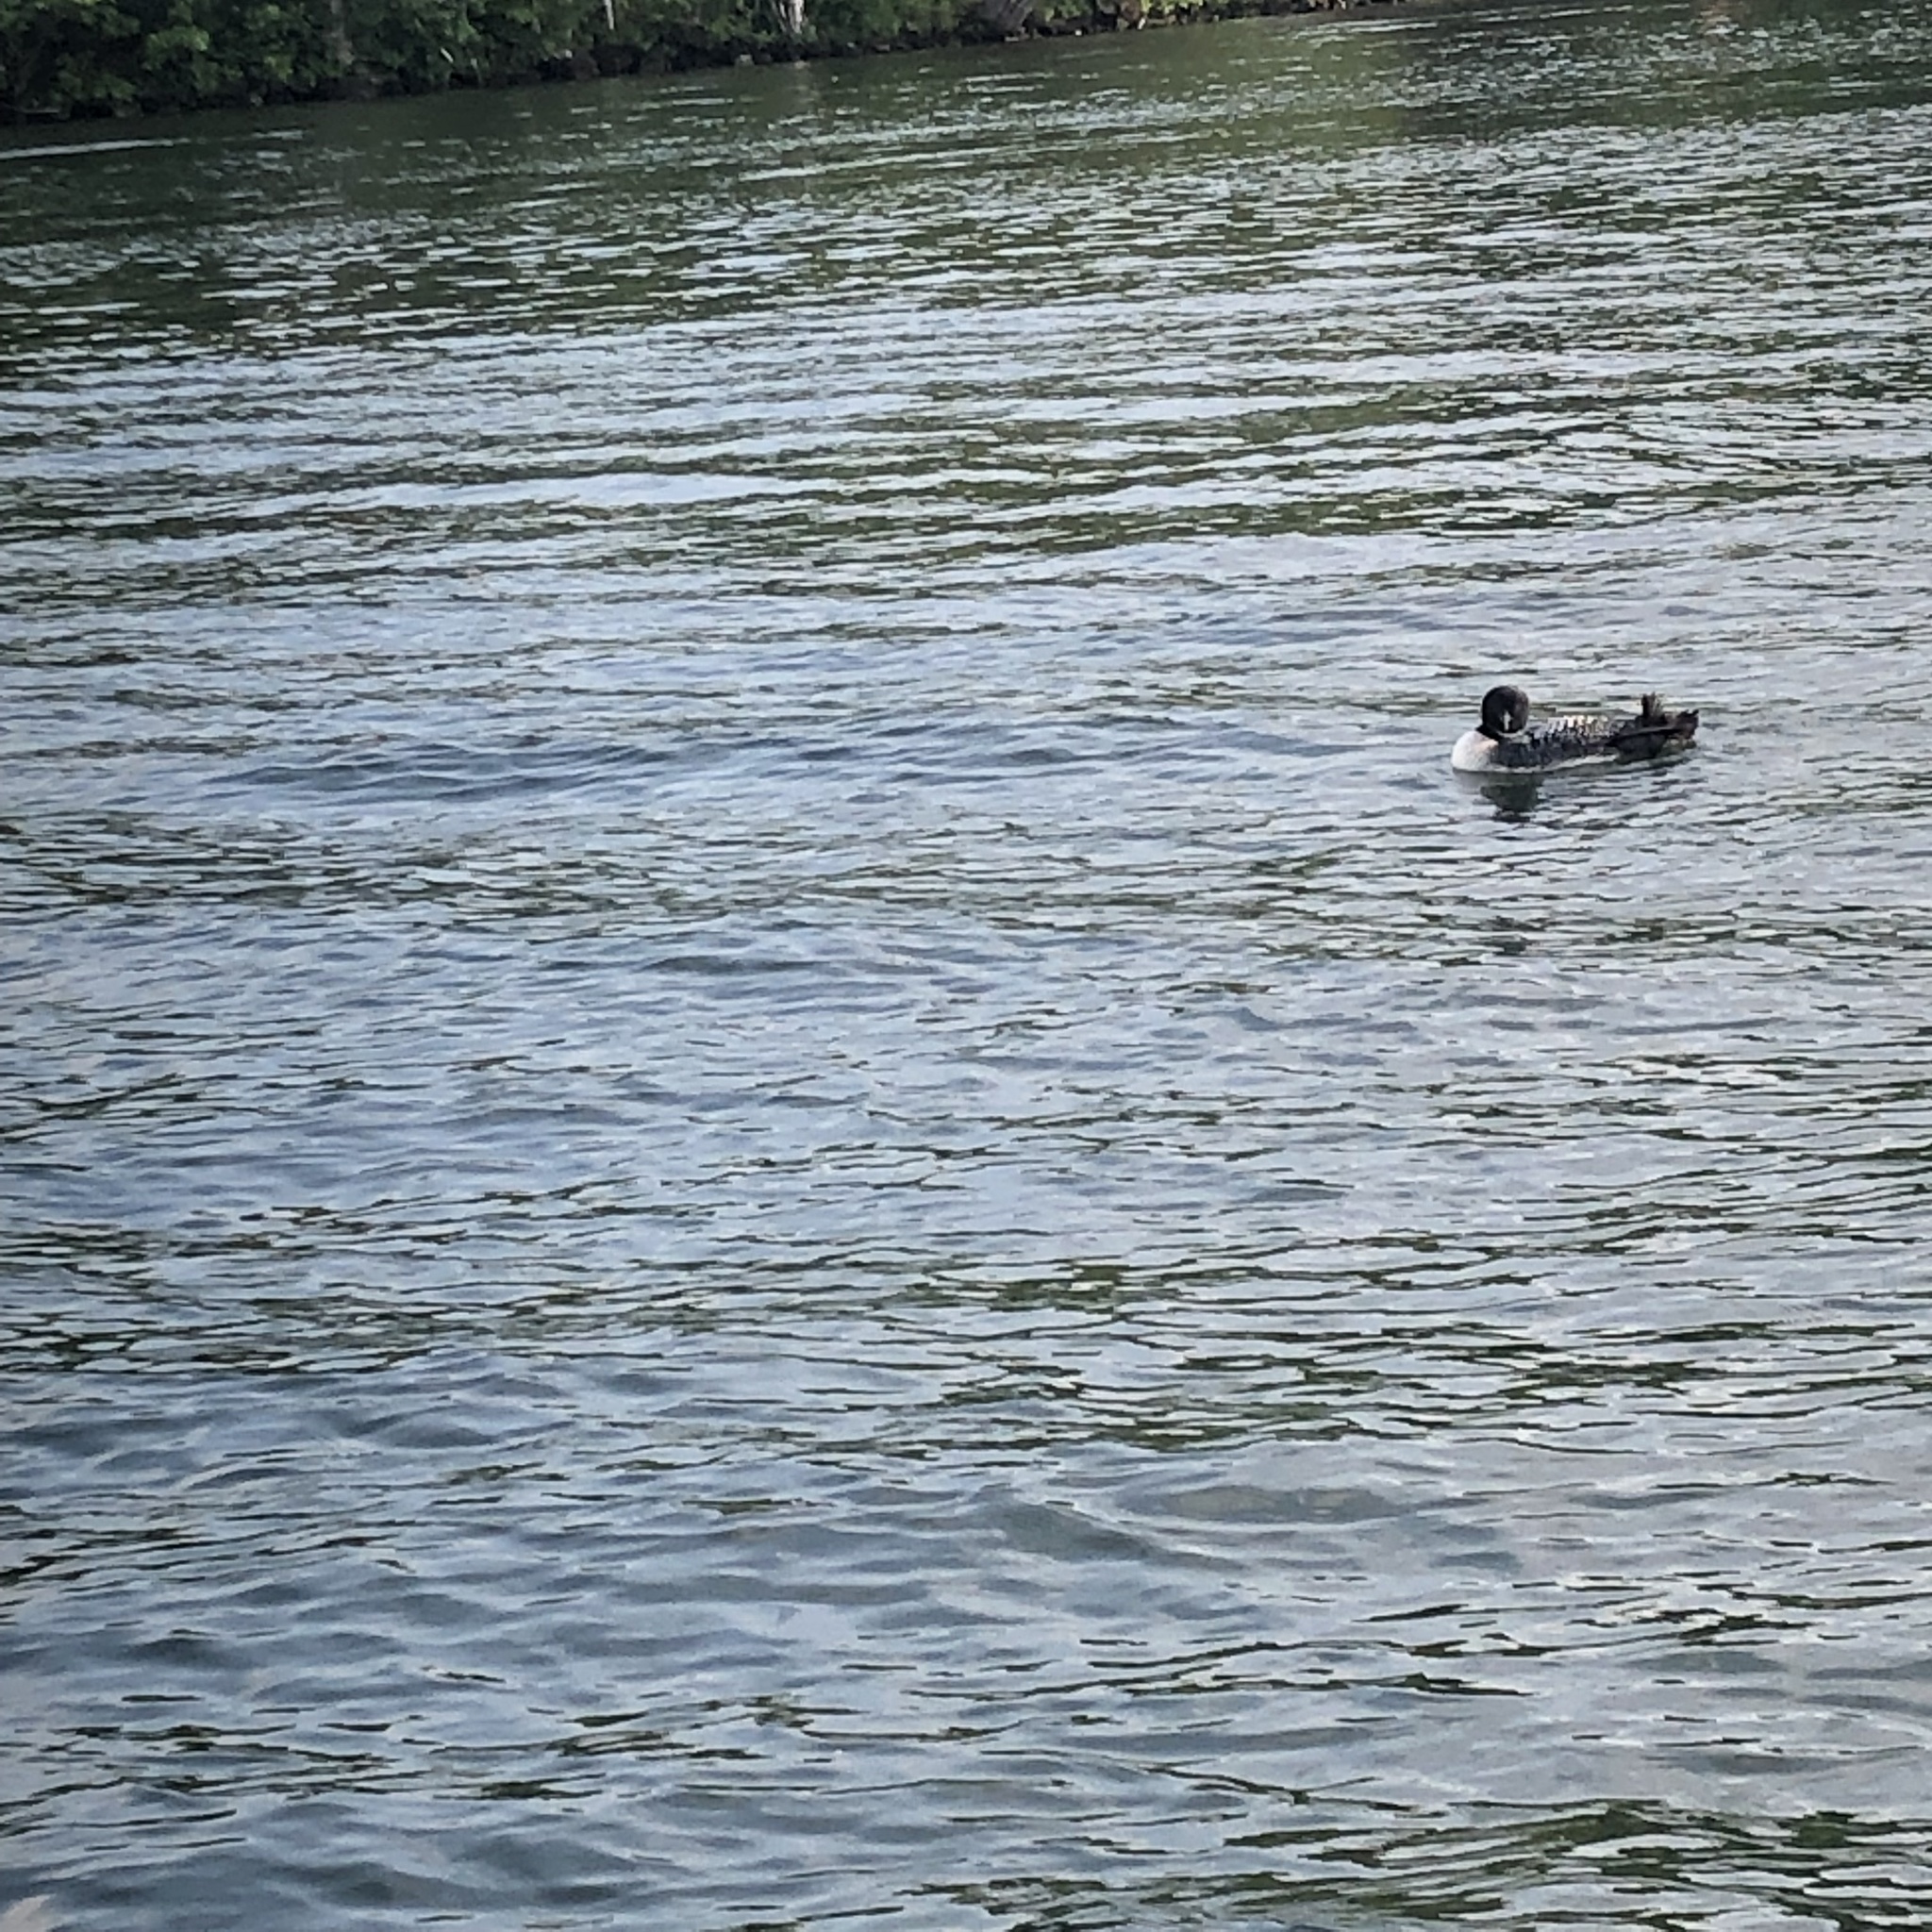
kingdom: Animalia
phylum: Chordata
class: Aves
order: Gaviiformes
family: Gaviidae
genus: Gavia
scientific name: Gavia immer
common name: Common loon
